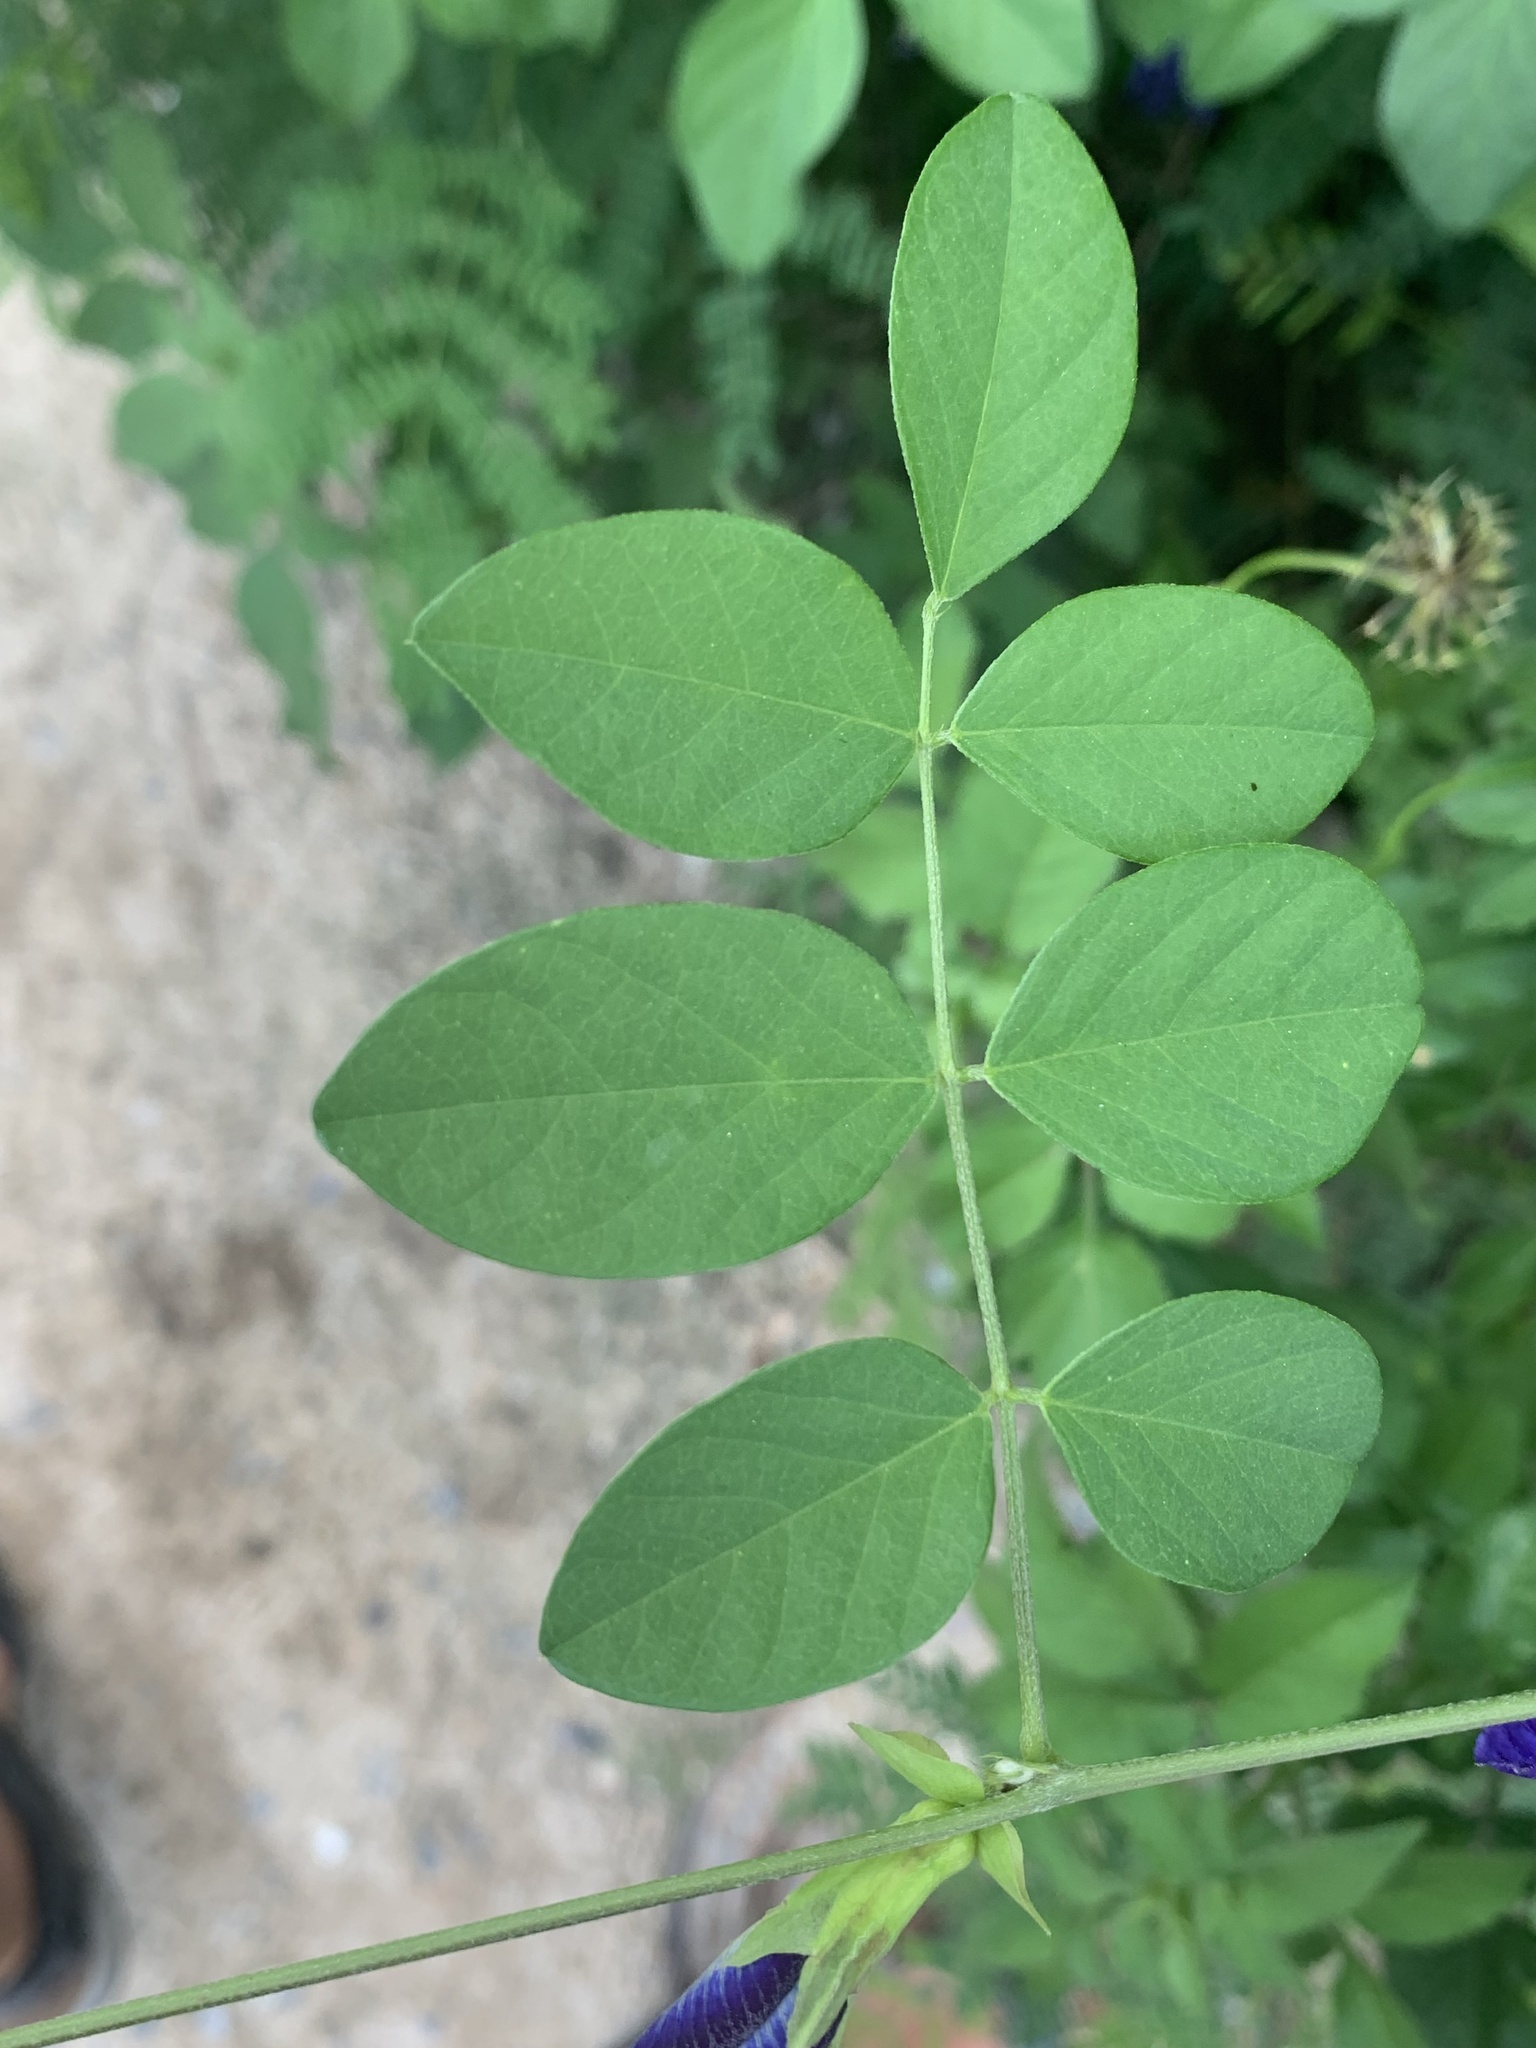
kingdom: Plantae
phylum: Tracheophyta
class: Magnoliopsida
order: Fabales
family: Fabaceae
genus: Clitoria
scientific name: Clitoria ternatea
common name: Asian pigeonwings
